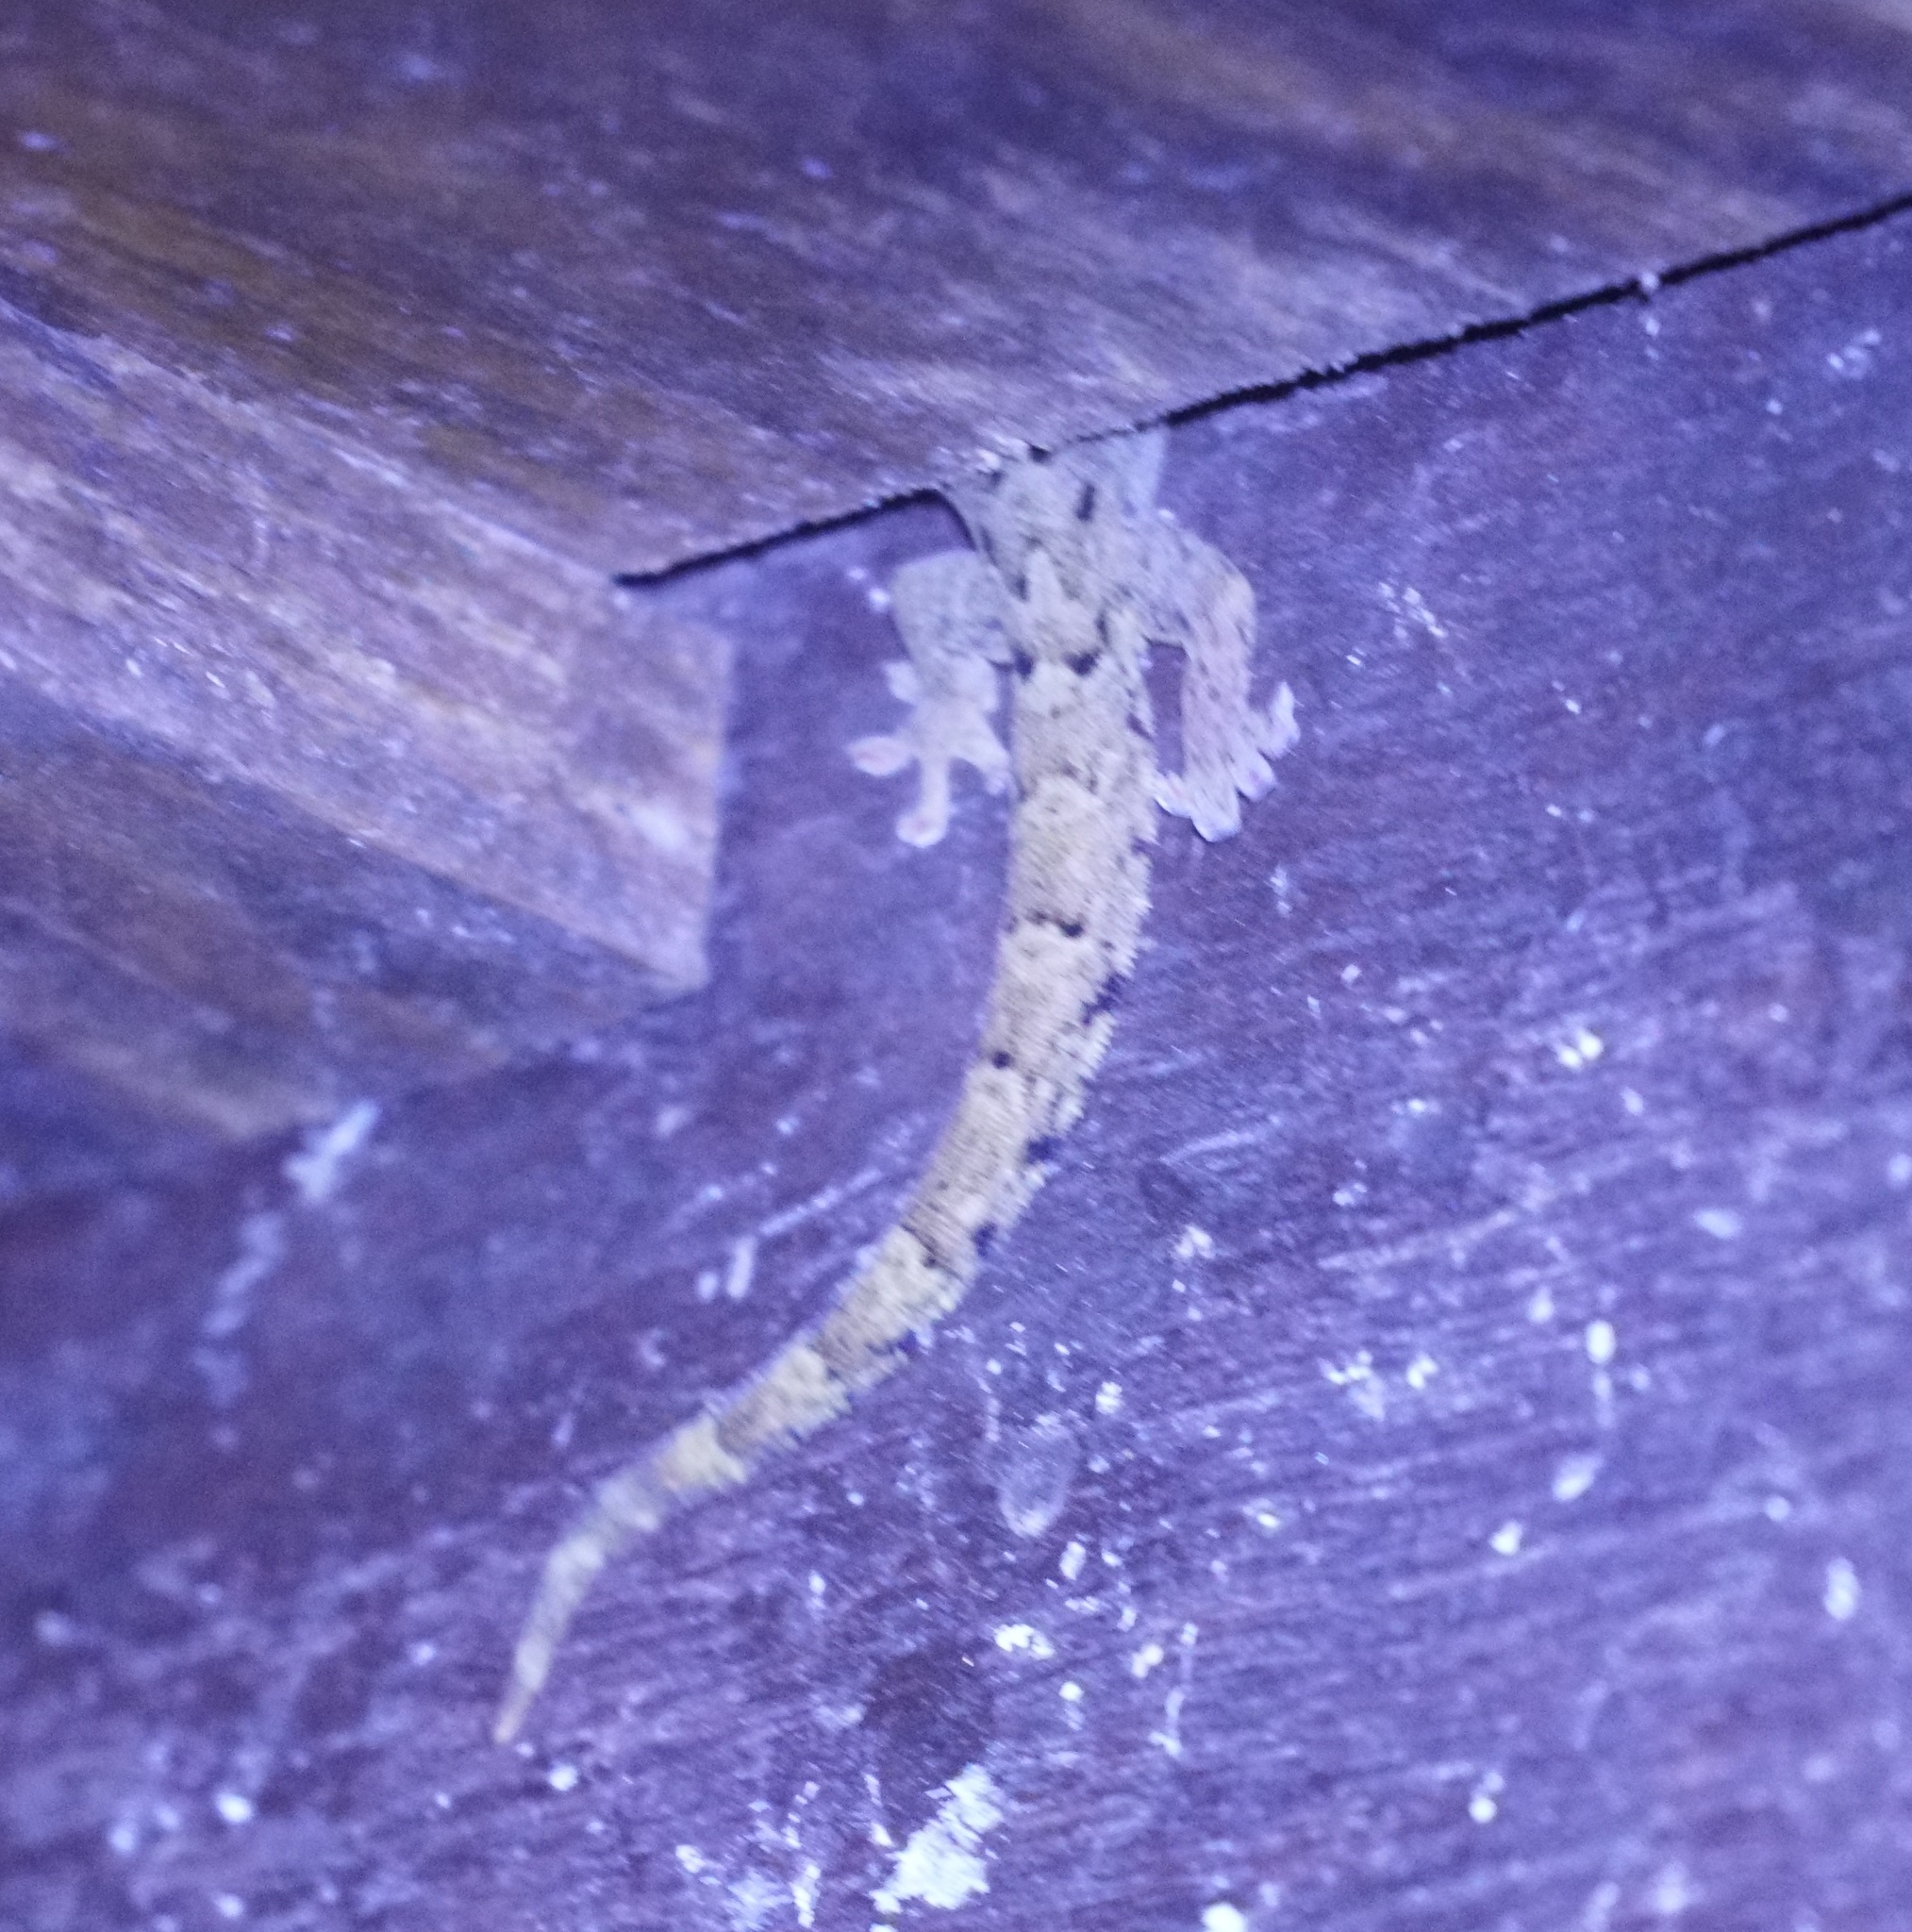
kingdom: Animalia
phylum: Chordata
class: Squamata
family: Gekkonidae
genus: Lepidodactylus
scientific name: Lepidodactylus lugubris
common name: Mourning gecko
